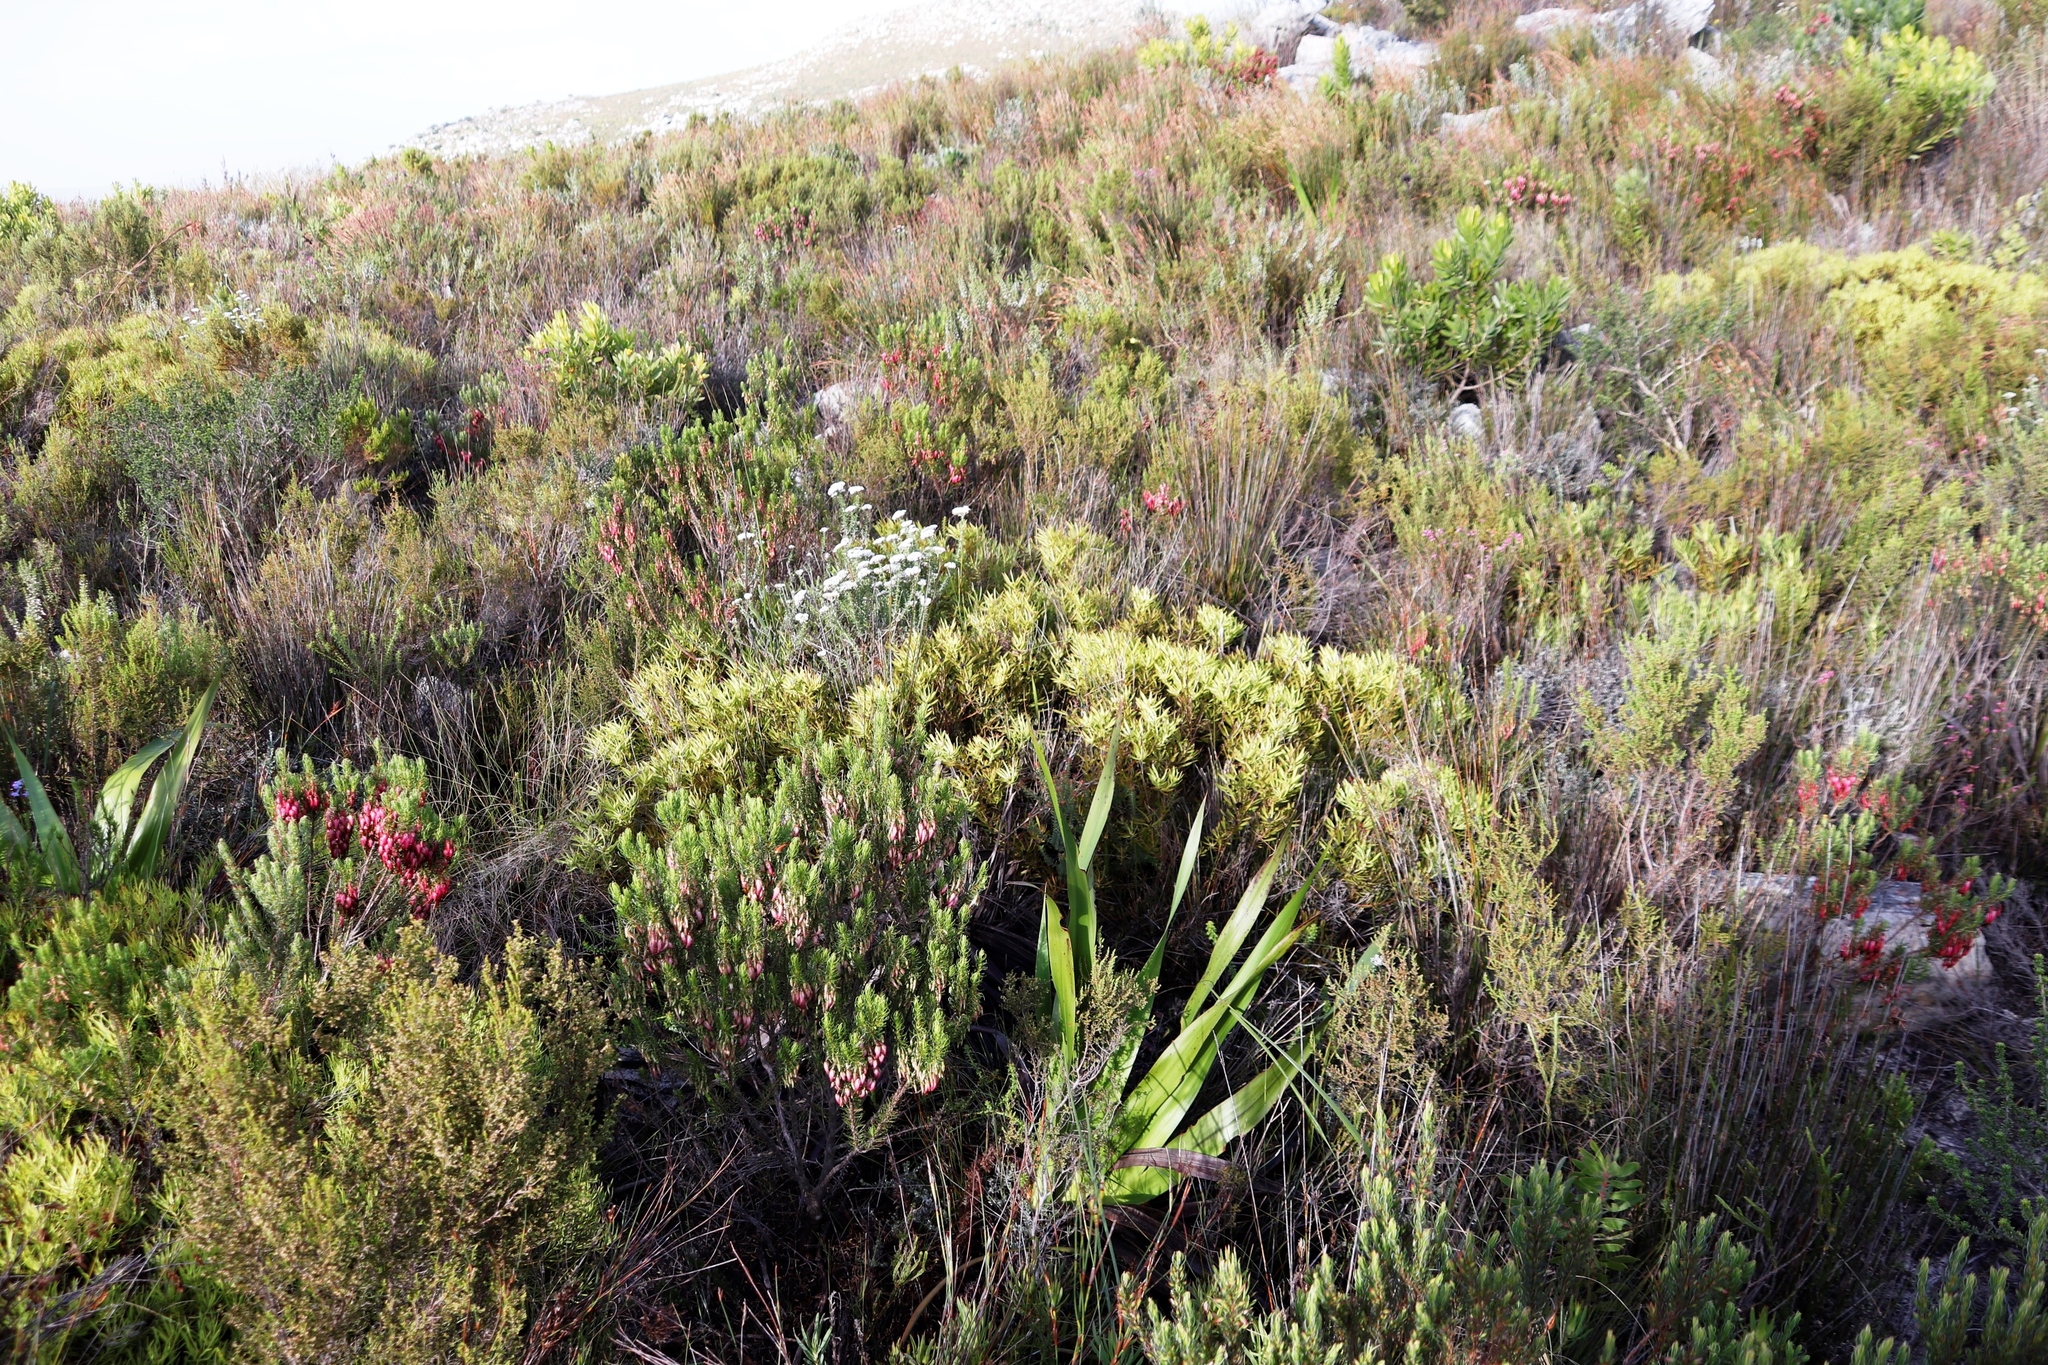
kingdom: Plantae
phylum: Tracheophyta
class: Magnoliopsida
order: Proteales
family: Proteaceae
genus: Leucadendron
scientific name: Leucadendron salignum
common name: Common sunshine conebush
